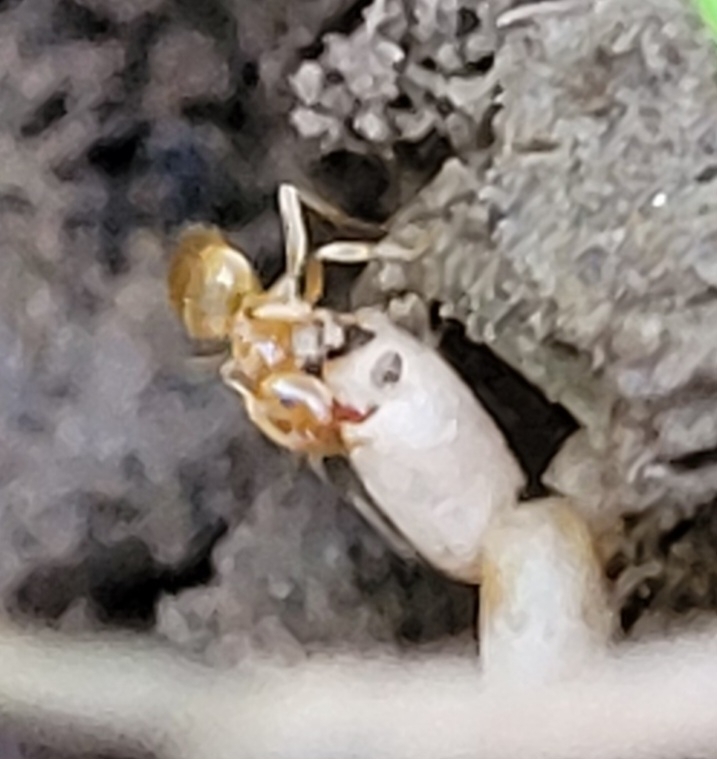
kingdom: Animalia
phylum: Arthropoda
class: Insecta
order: Hymenoptera
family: Formicidae
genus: Lasius
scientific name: Lasius flavus
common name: Blond field ant
